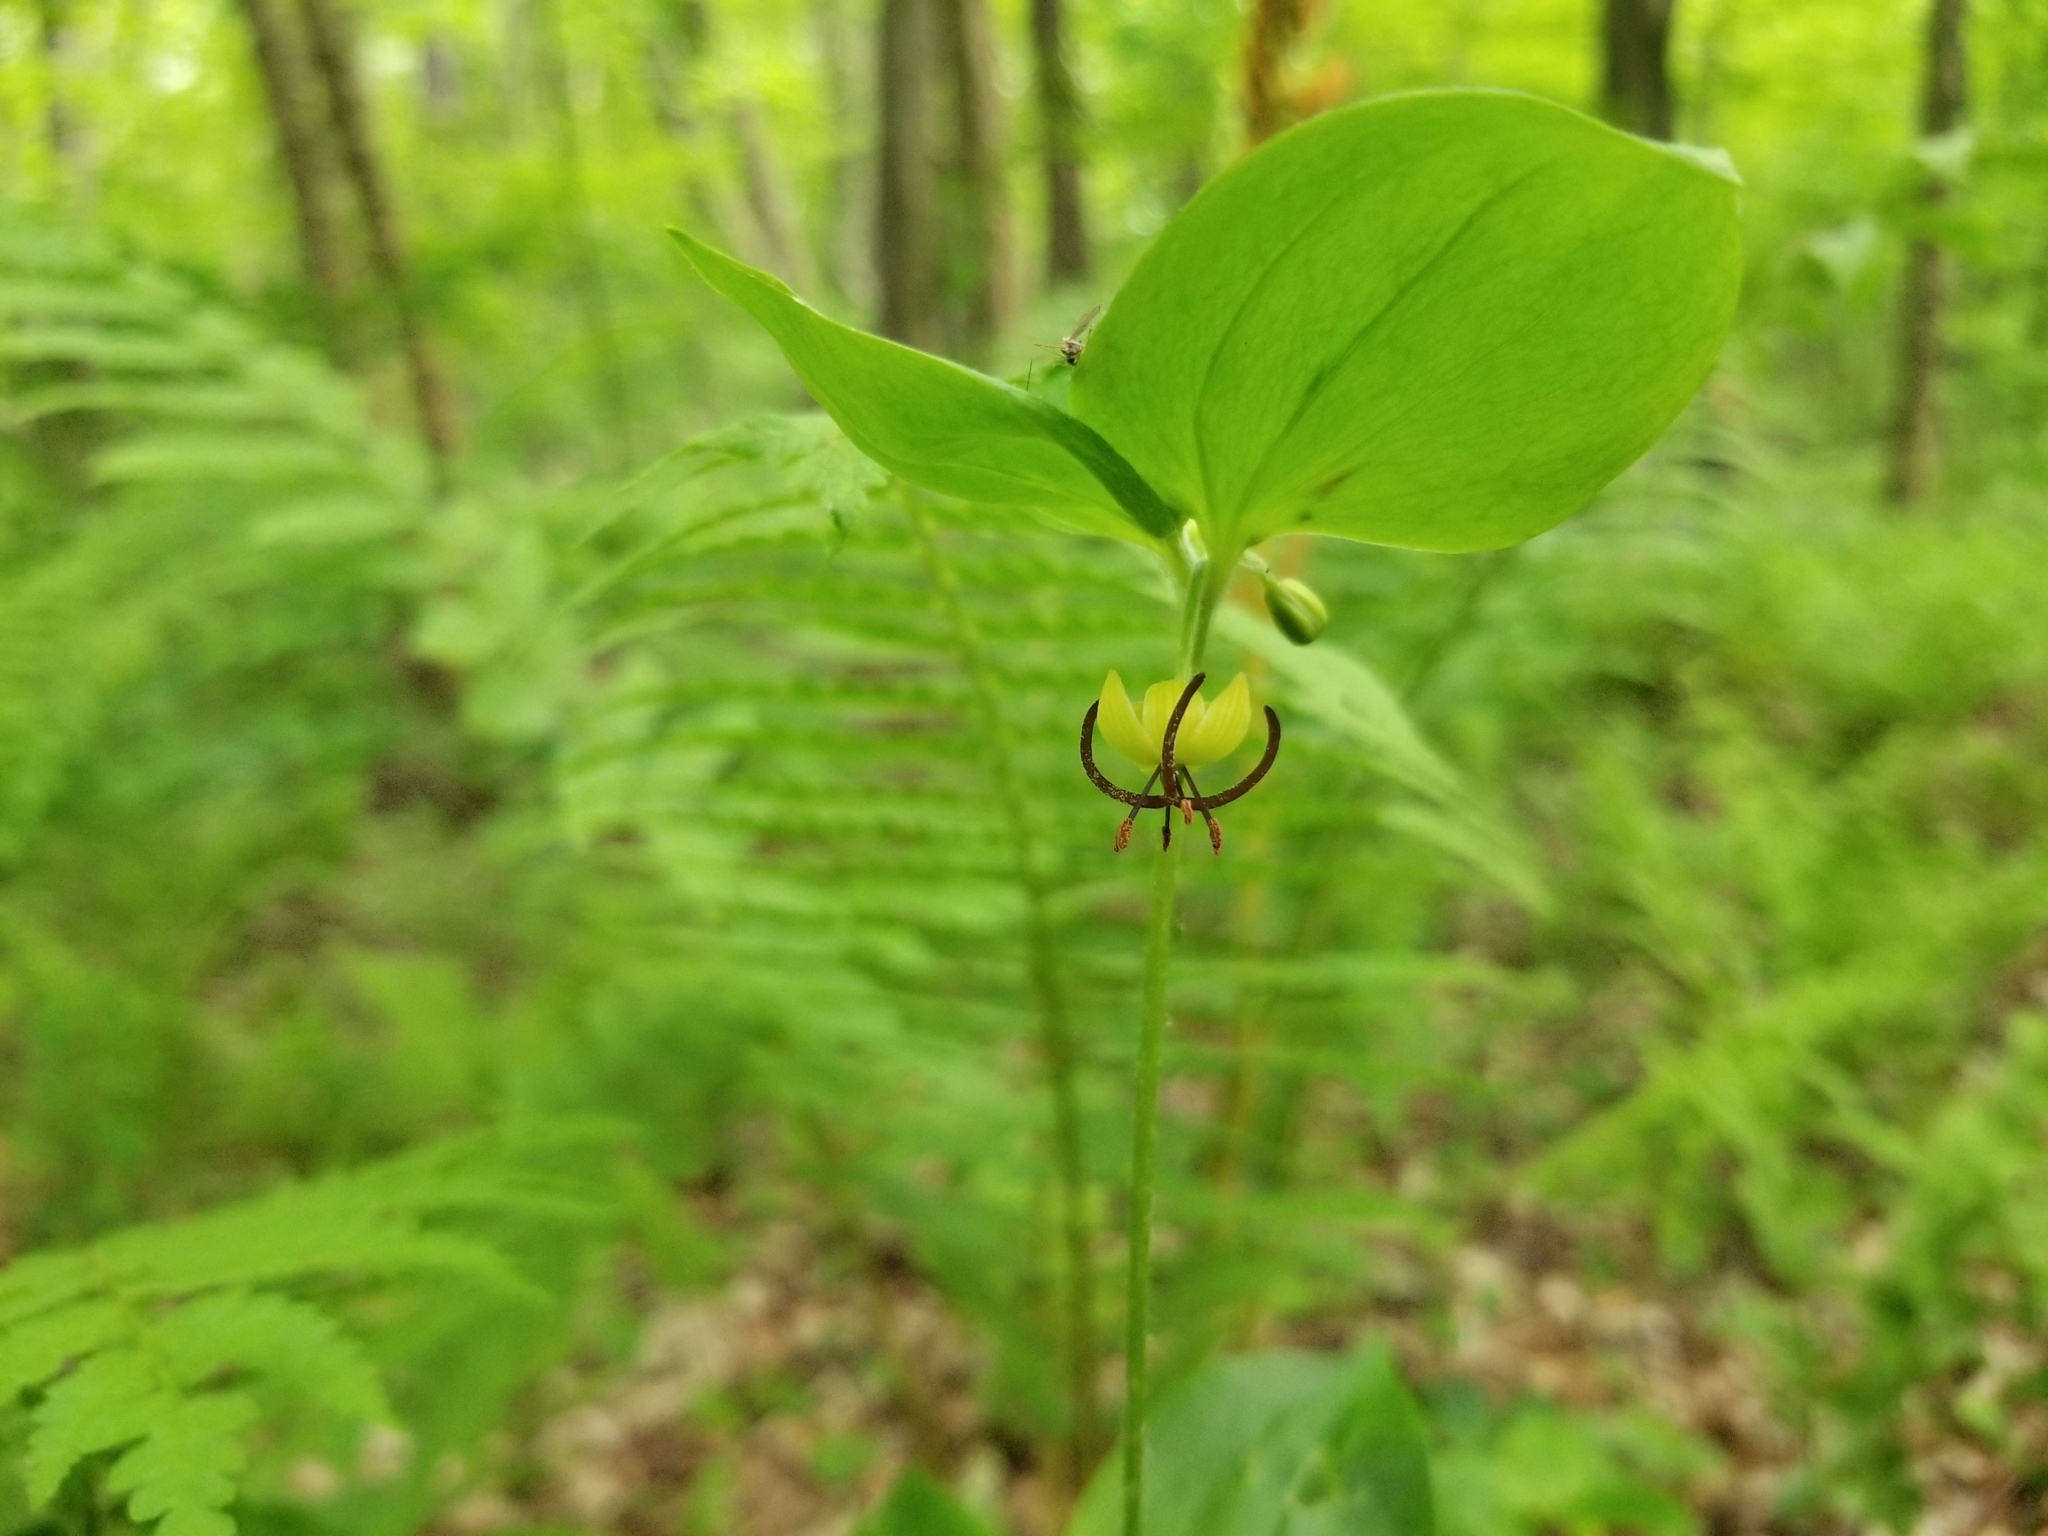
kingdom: Plantae
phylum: Tracheophyta
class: Liliopsida
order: Liliales
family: Liliaceae
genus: Medeola
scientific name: Medeola virginiana
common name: Indian cucumber-root
